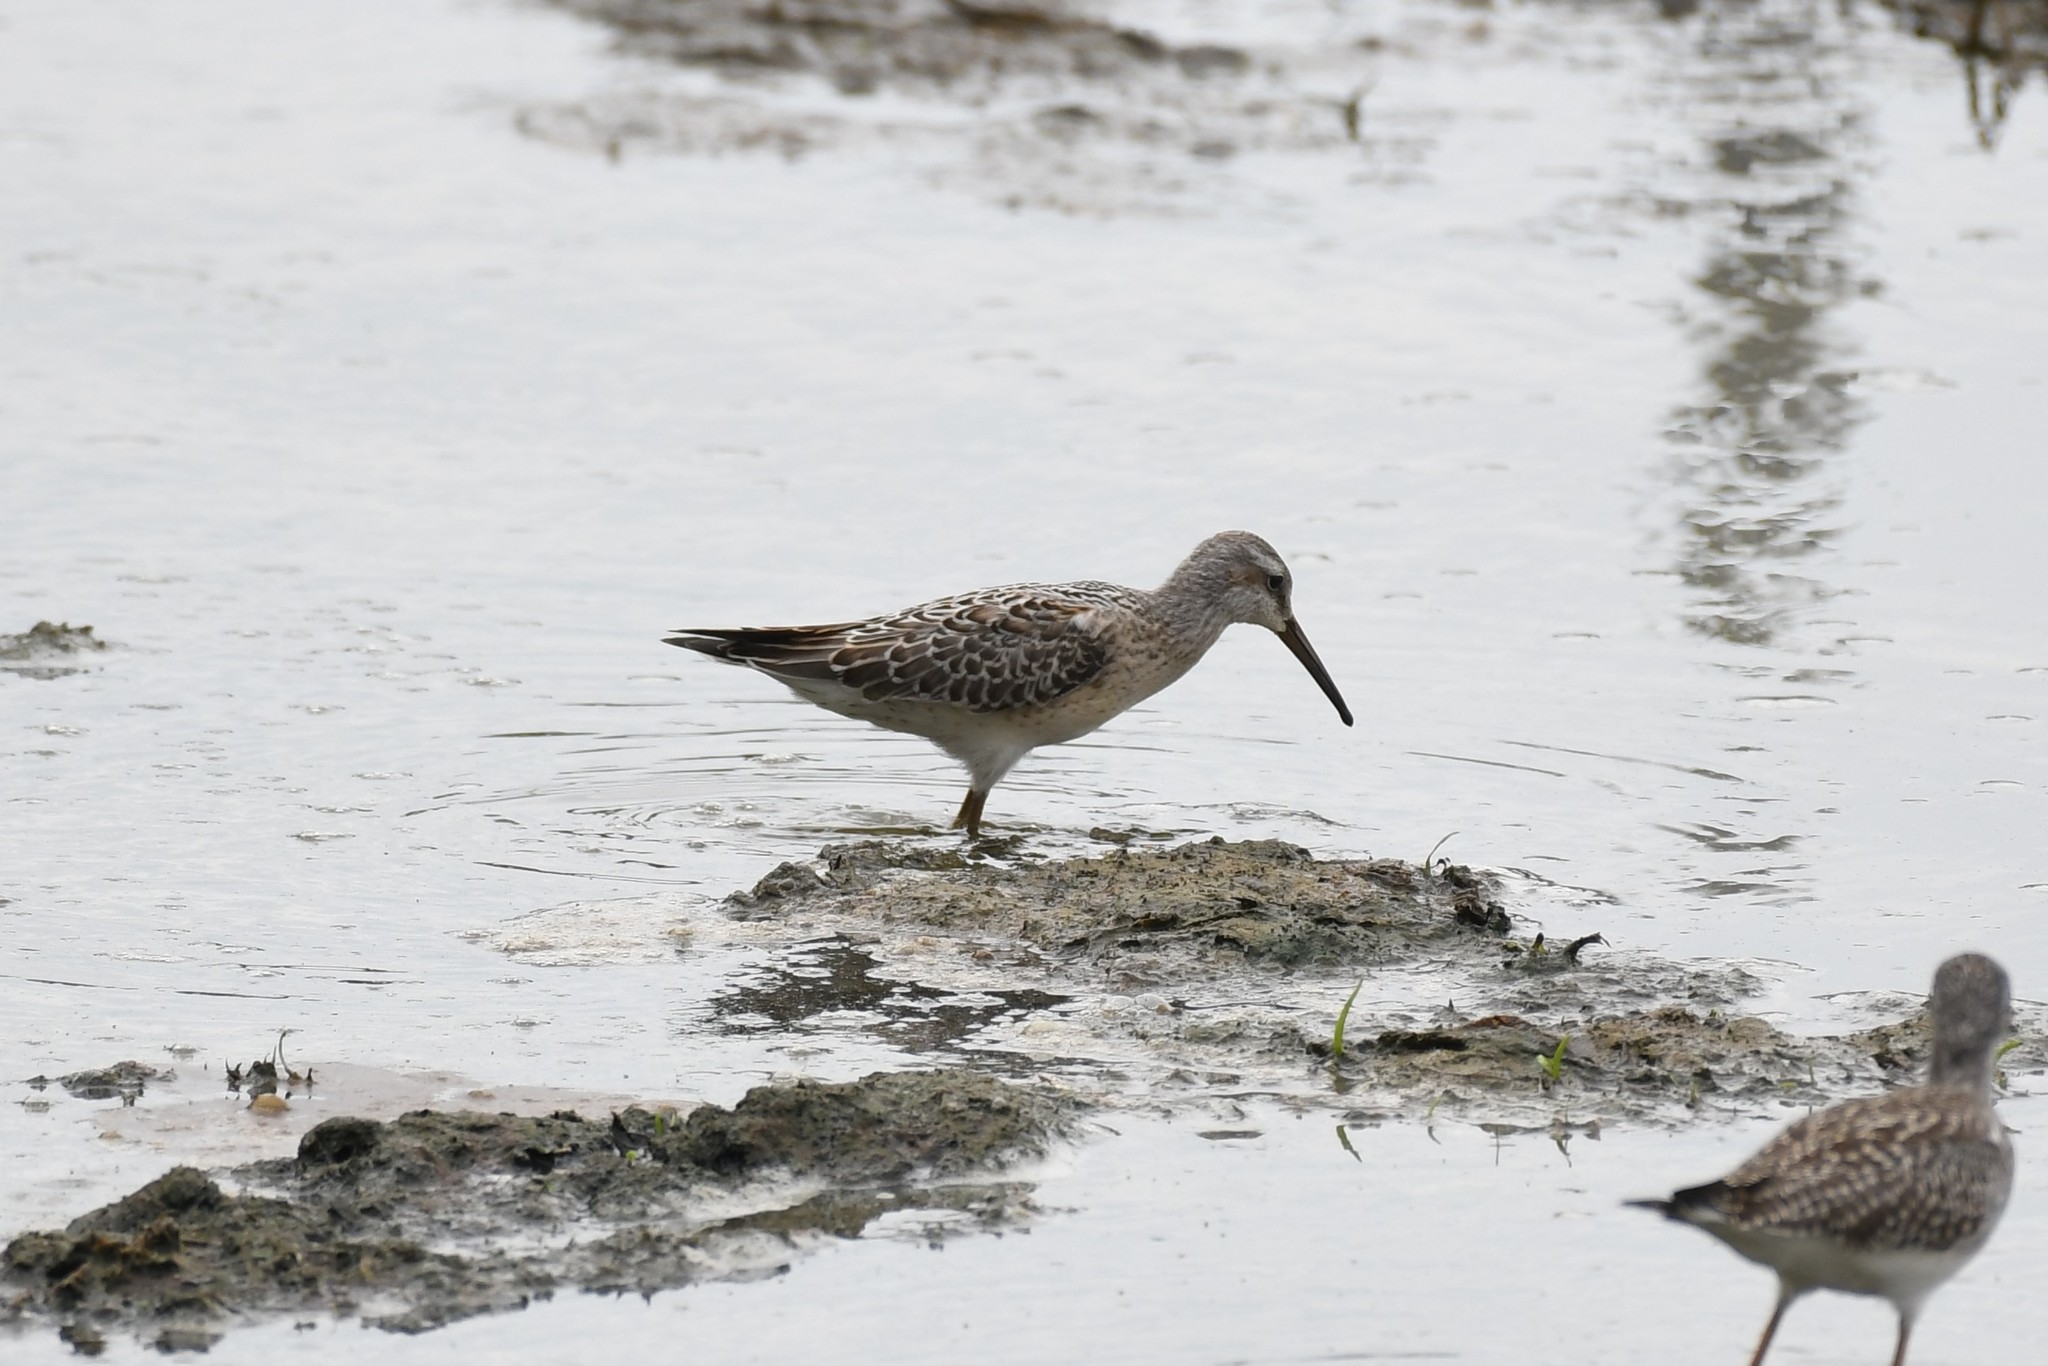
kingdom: Animalia
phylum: Chordata
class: Aves
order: Charadriiformes
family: Scolopacidae
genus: Calidris
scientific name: Calidris himantopus
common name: Stilt sandpiper
